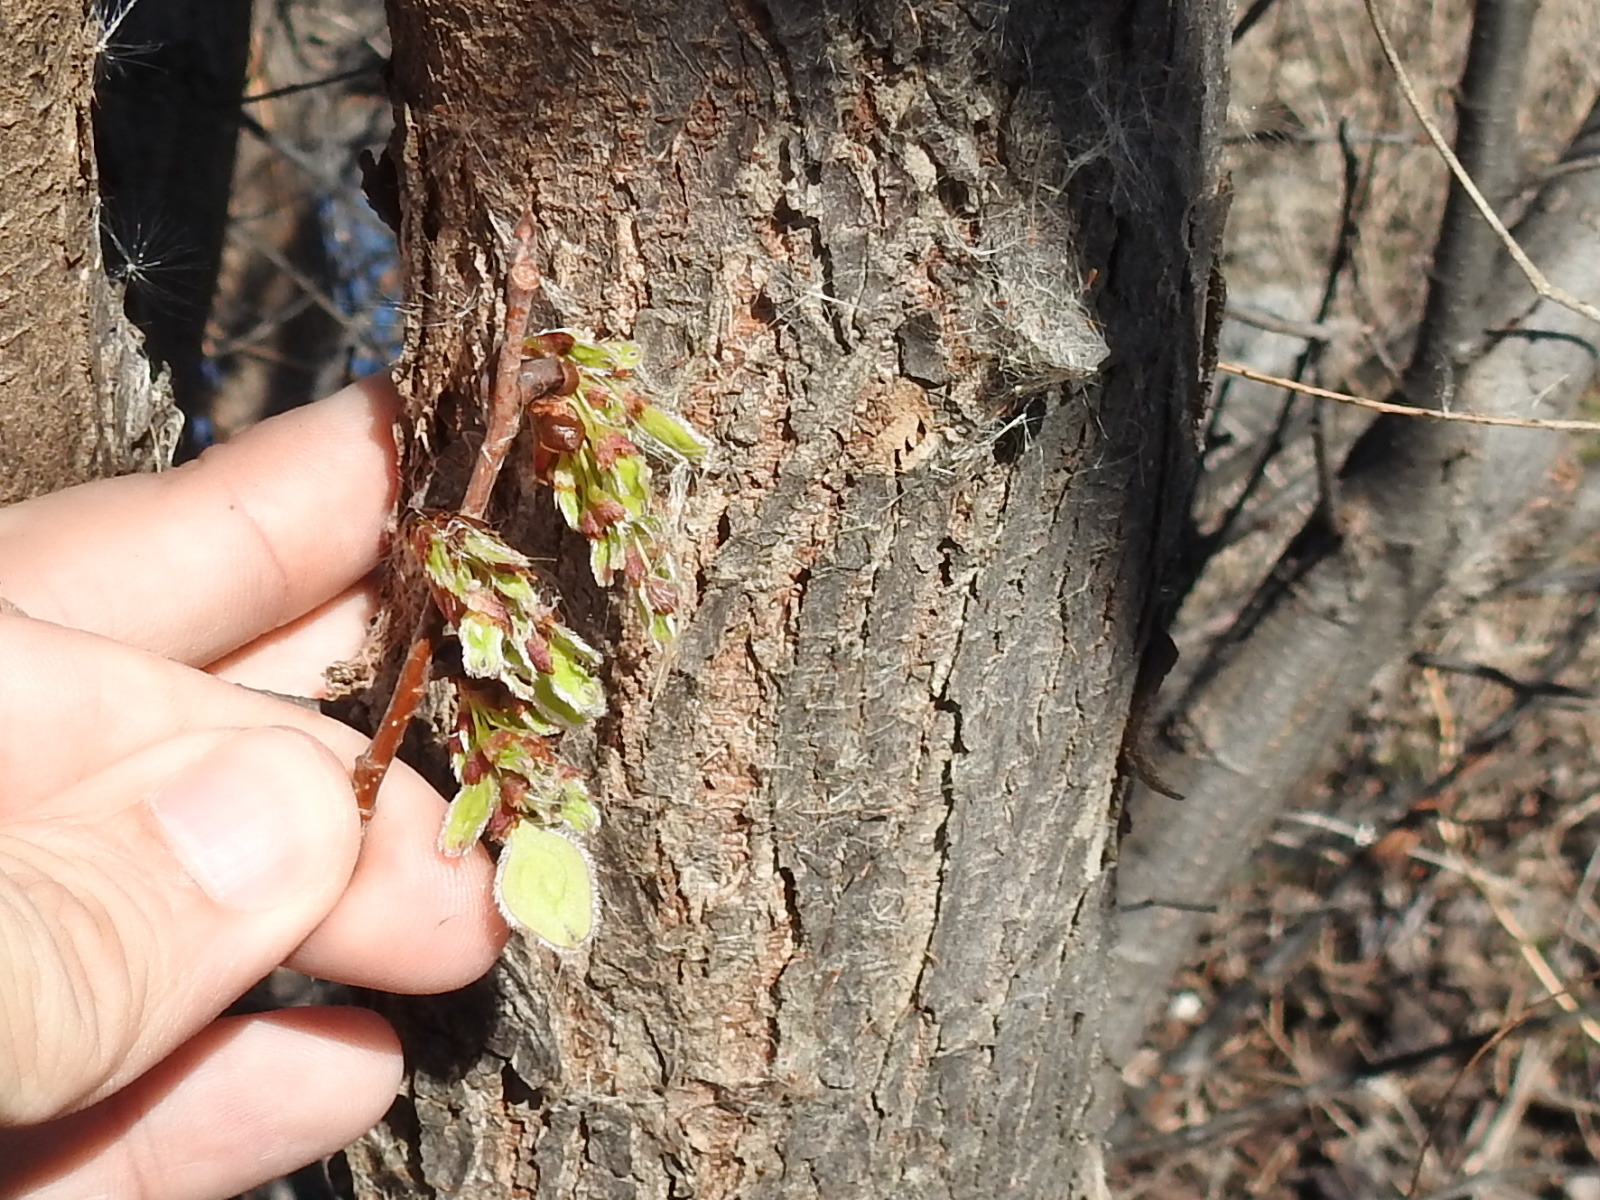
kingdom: Plantae
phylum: Tracheophyta
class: Magnoliopsida
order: Rosales
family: Ulmaceae
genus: Ulmus
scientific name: Ulmus americana
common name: American elm
